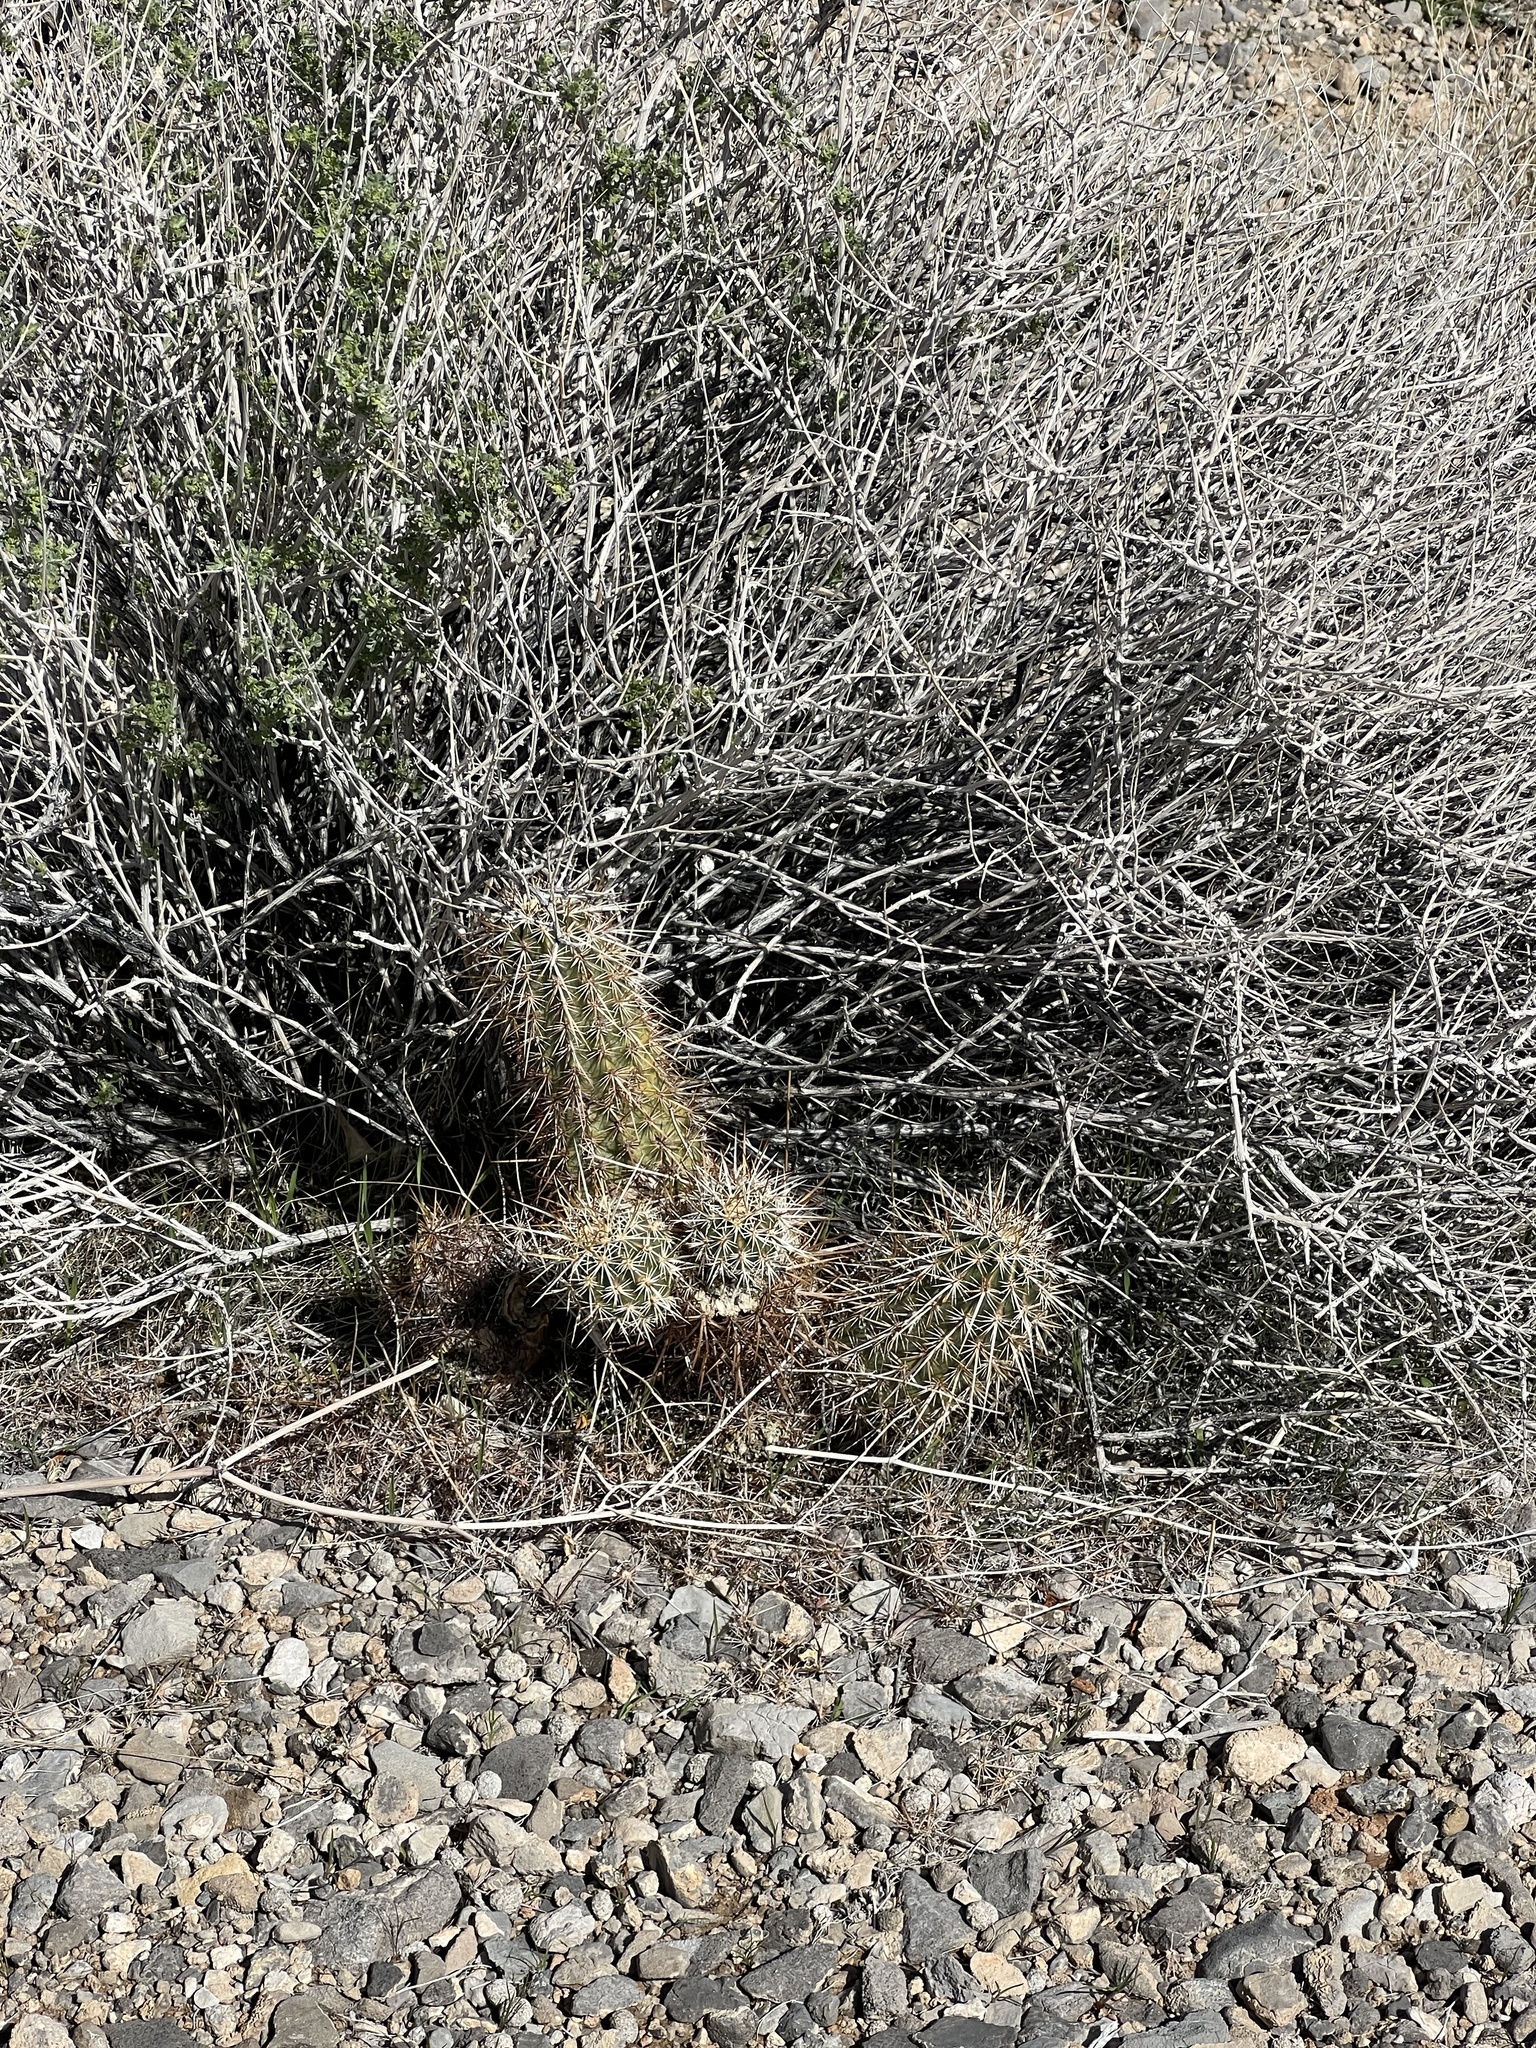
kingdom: Plantae
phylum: Tracheophyta
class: Magnoliopsida
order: Caryophyllales
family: Cactaceae
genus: Echinocereus
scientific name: Echinocereus engelmannii
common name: Engelmann's hedgehog cactus
